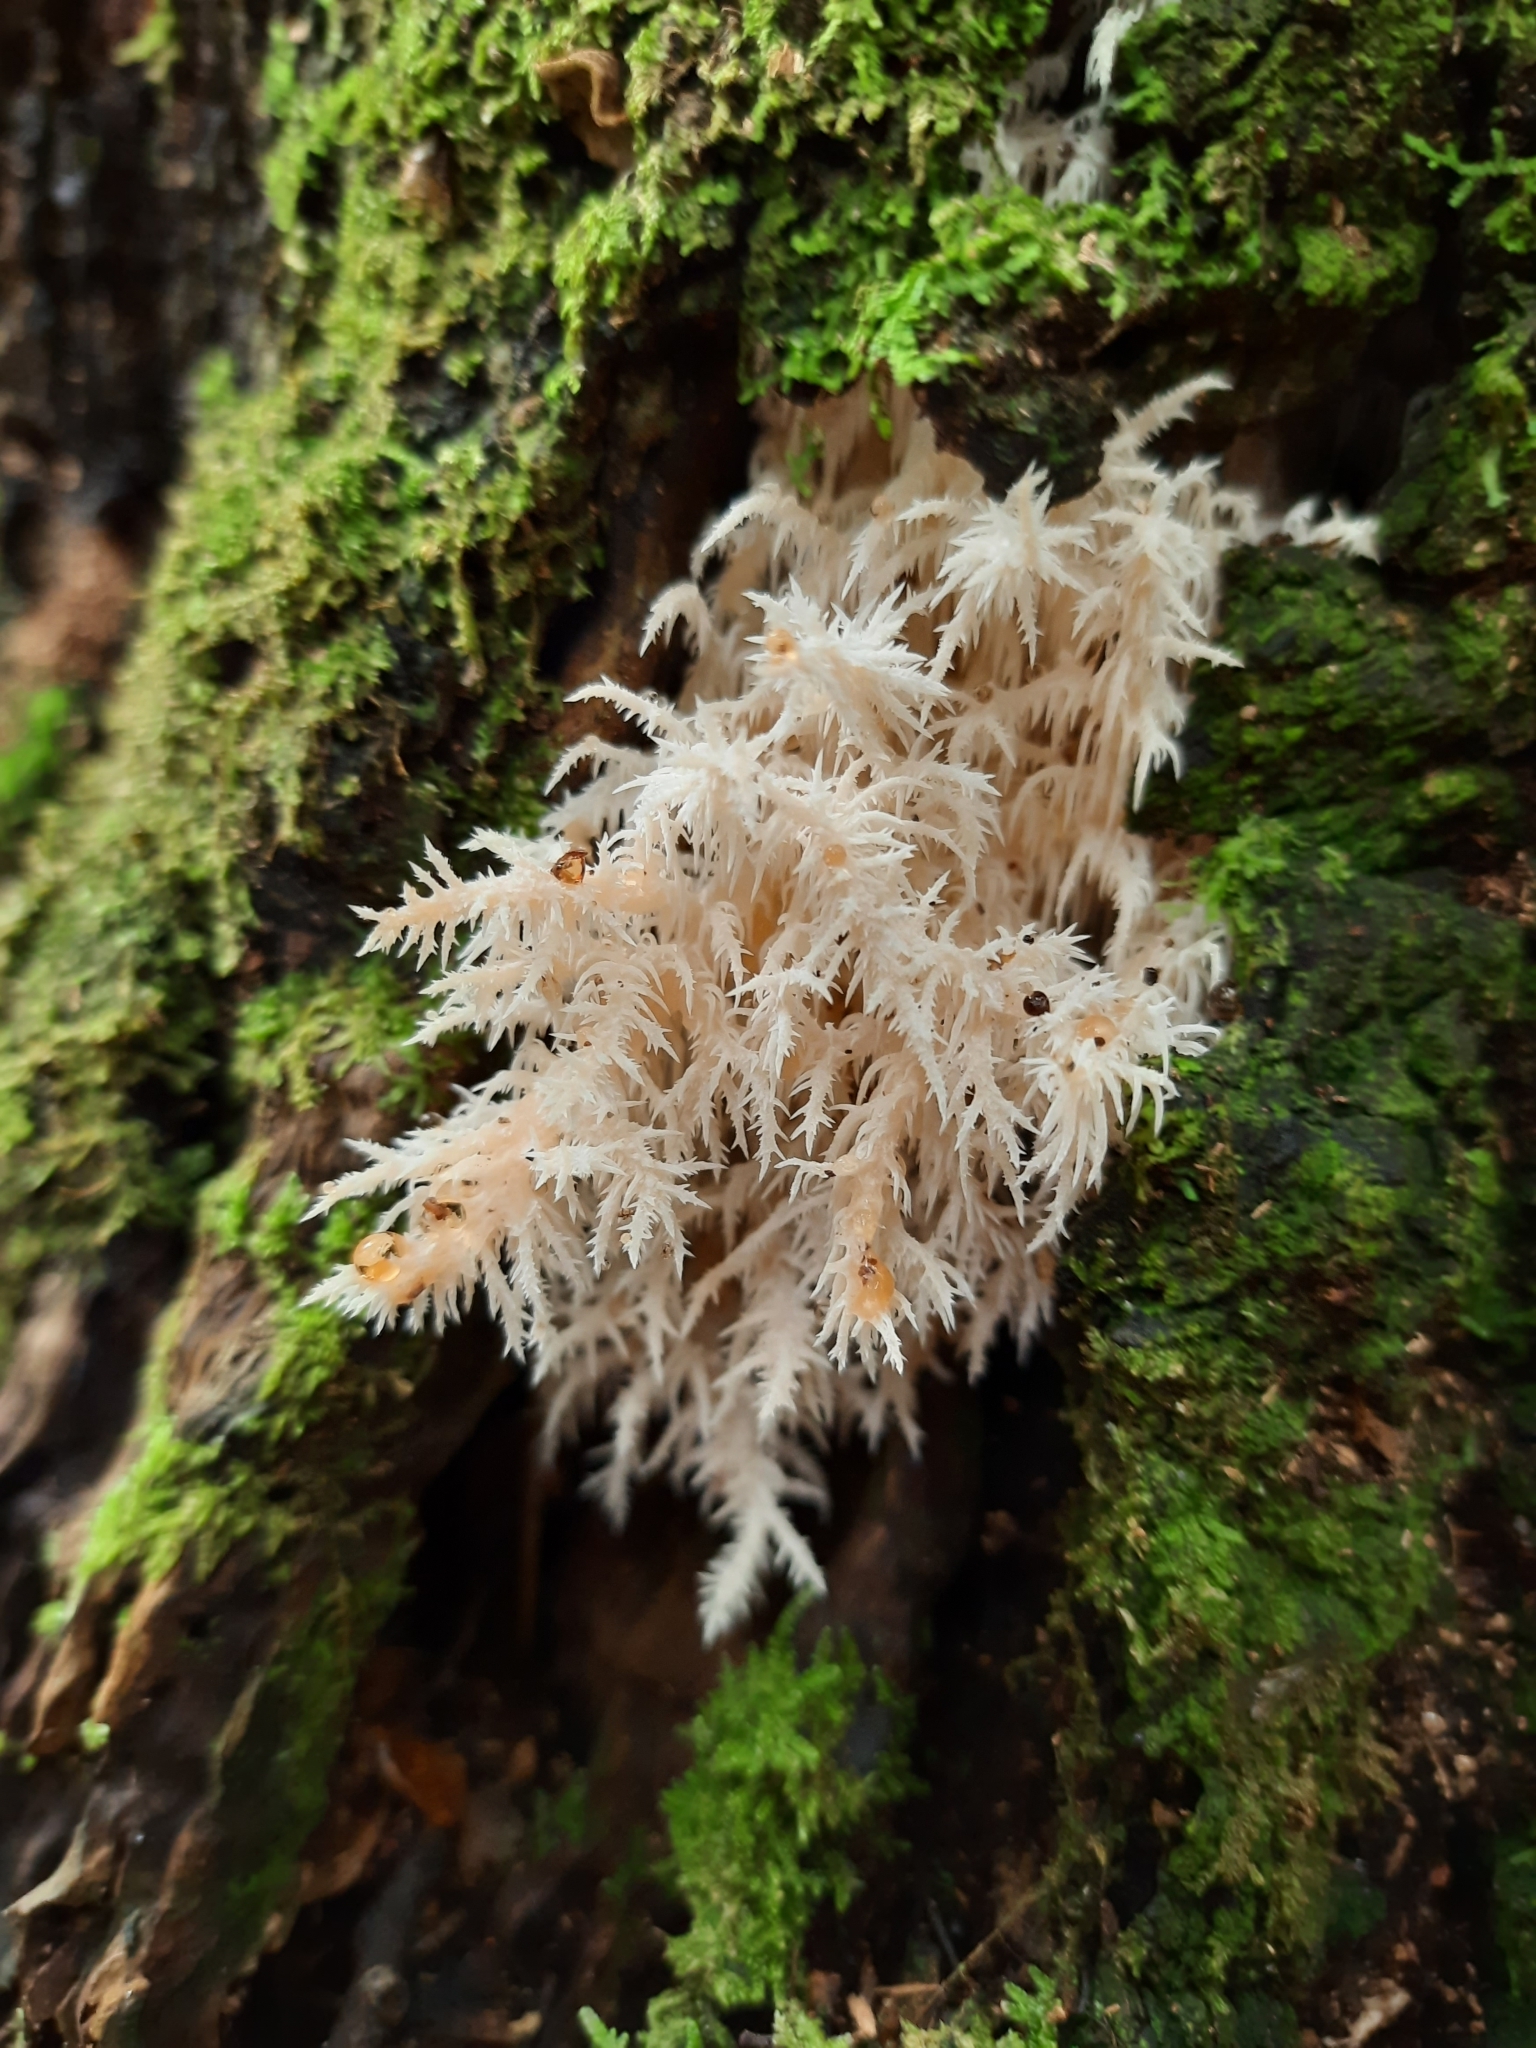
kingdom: Fungi
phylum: Basidiomycota
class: Agaricomycetes
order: Russulales
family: Hericiaceae
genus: Hericium
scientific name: Hericium novae-zealandiae
